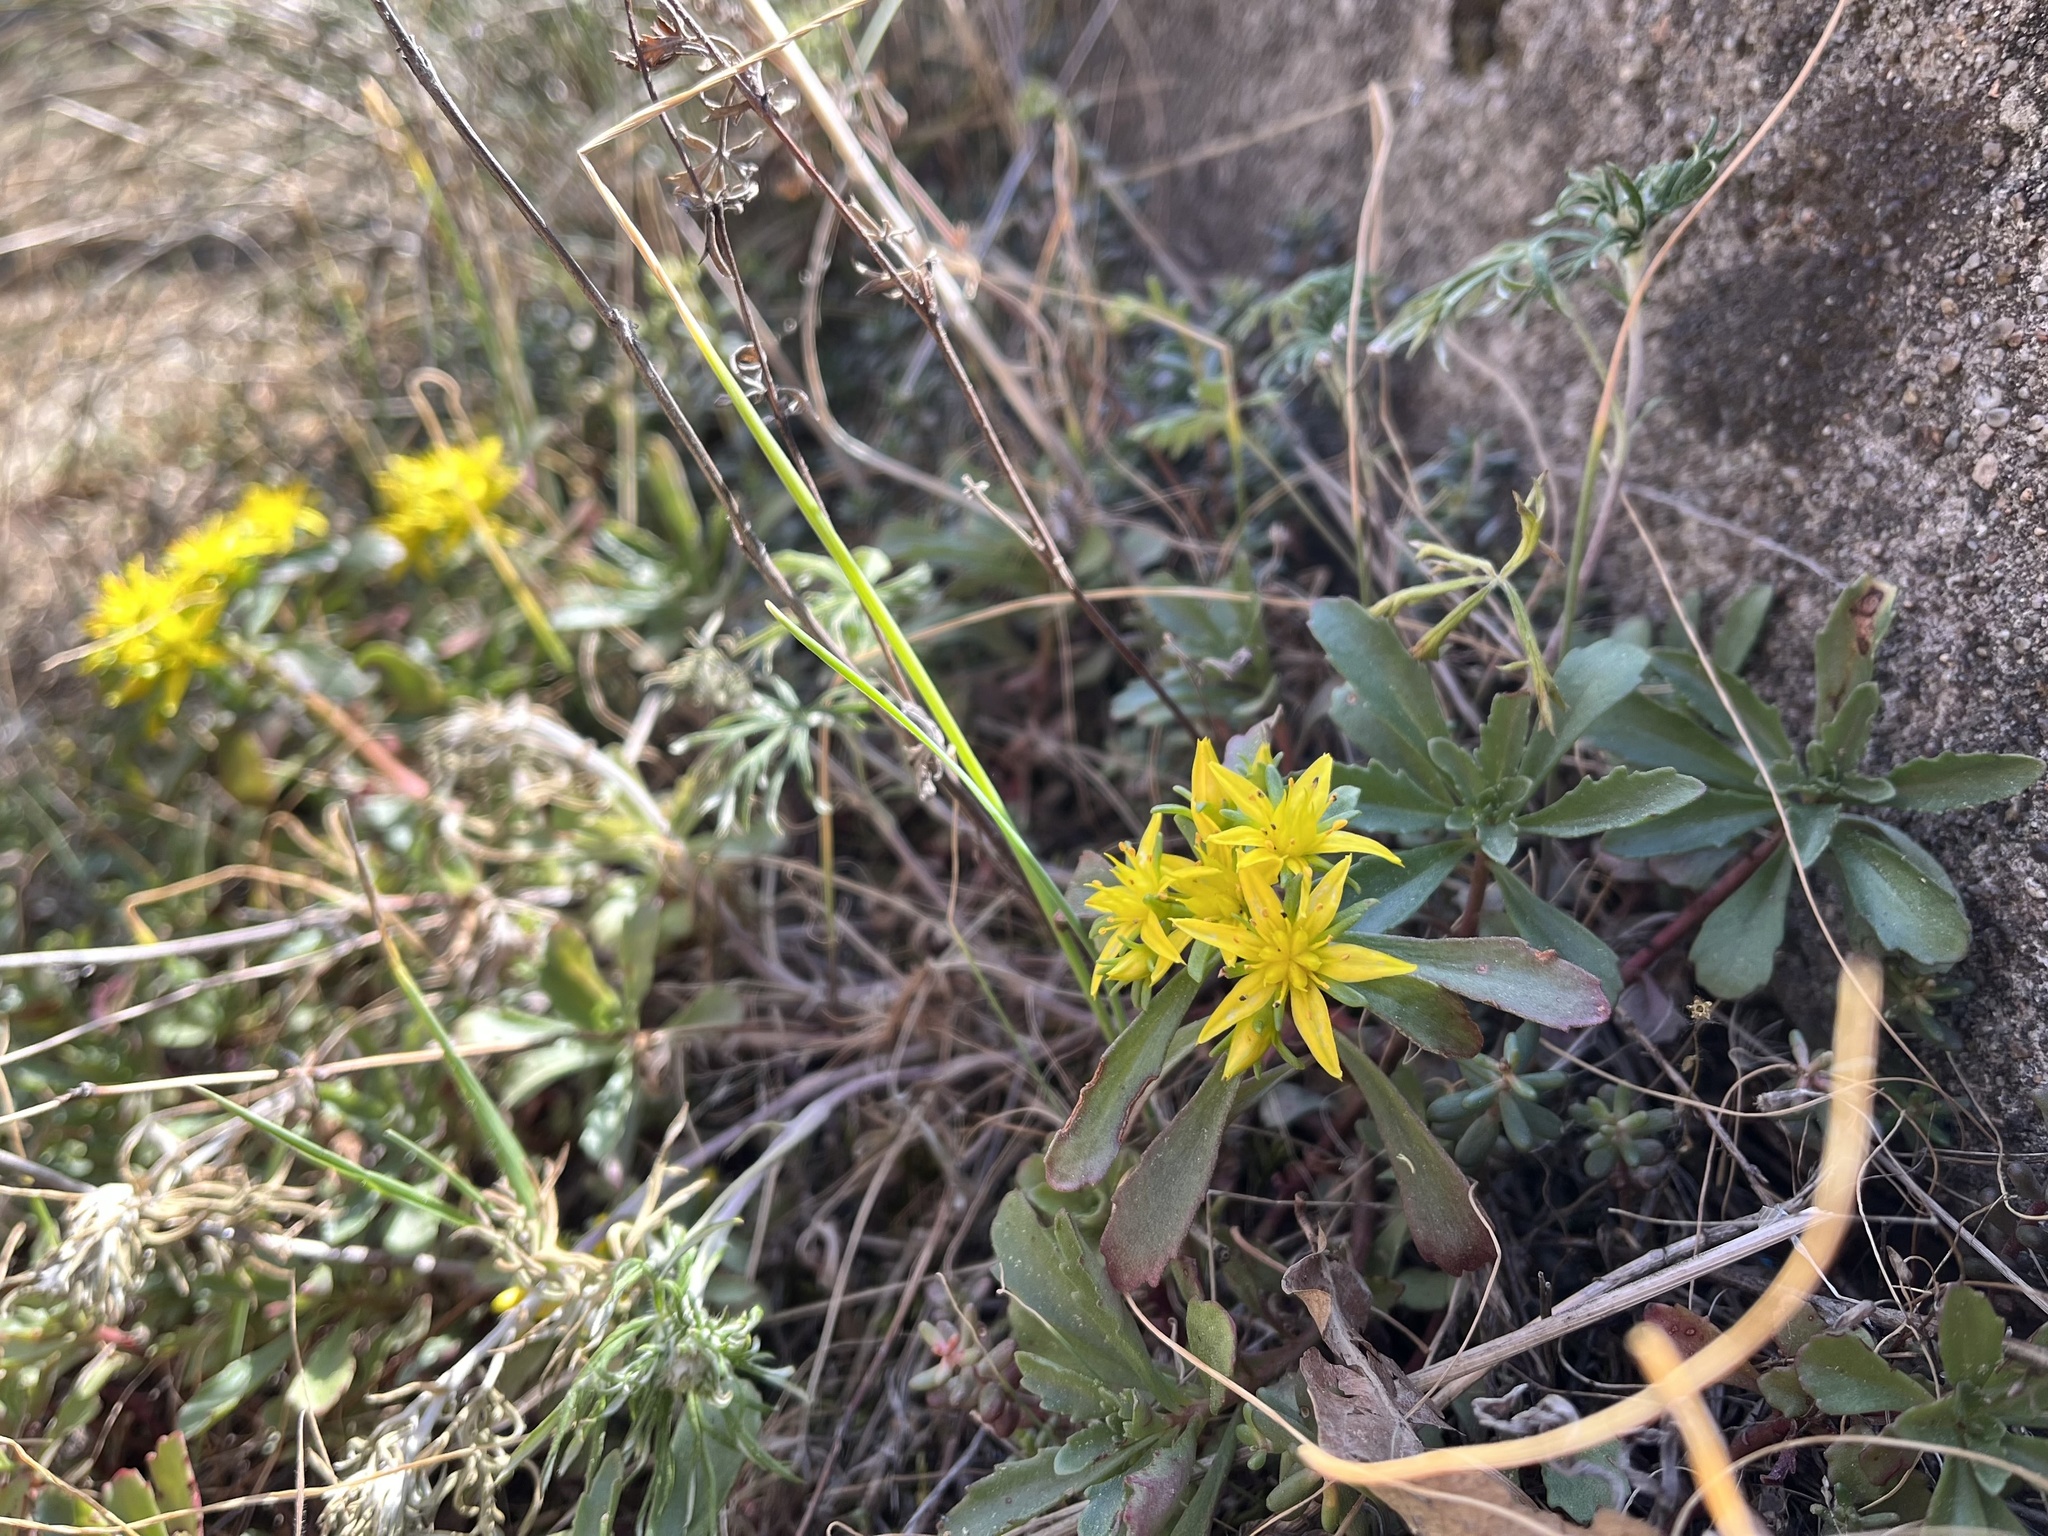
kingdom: Plantae
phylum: Tracheophyta
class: Magnoliopsida
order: Saxifragales
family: Crassulaceae
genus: Phedimus
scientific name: Phedimus hybridus
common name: Hybrid stonecrop
